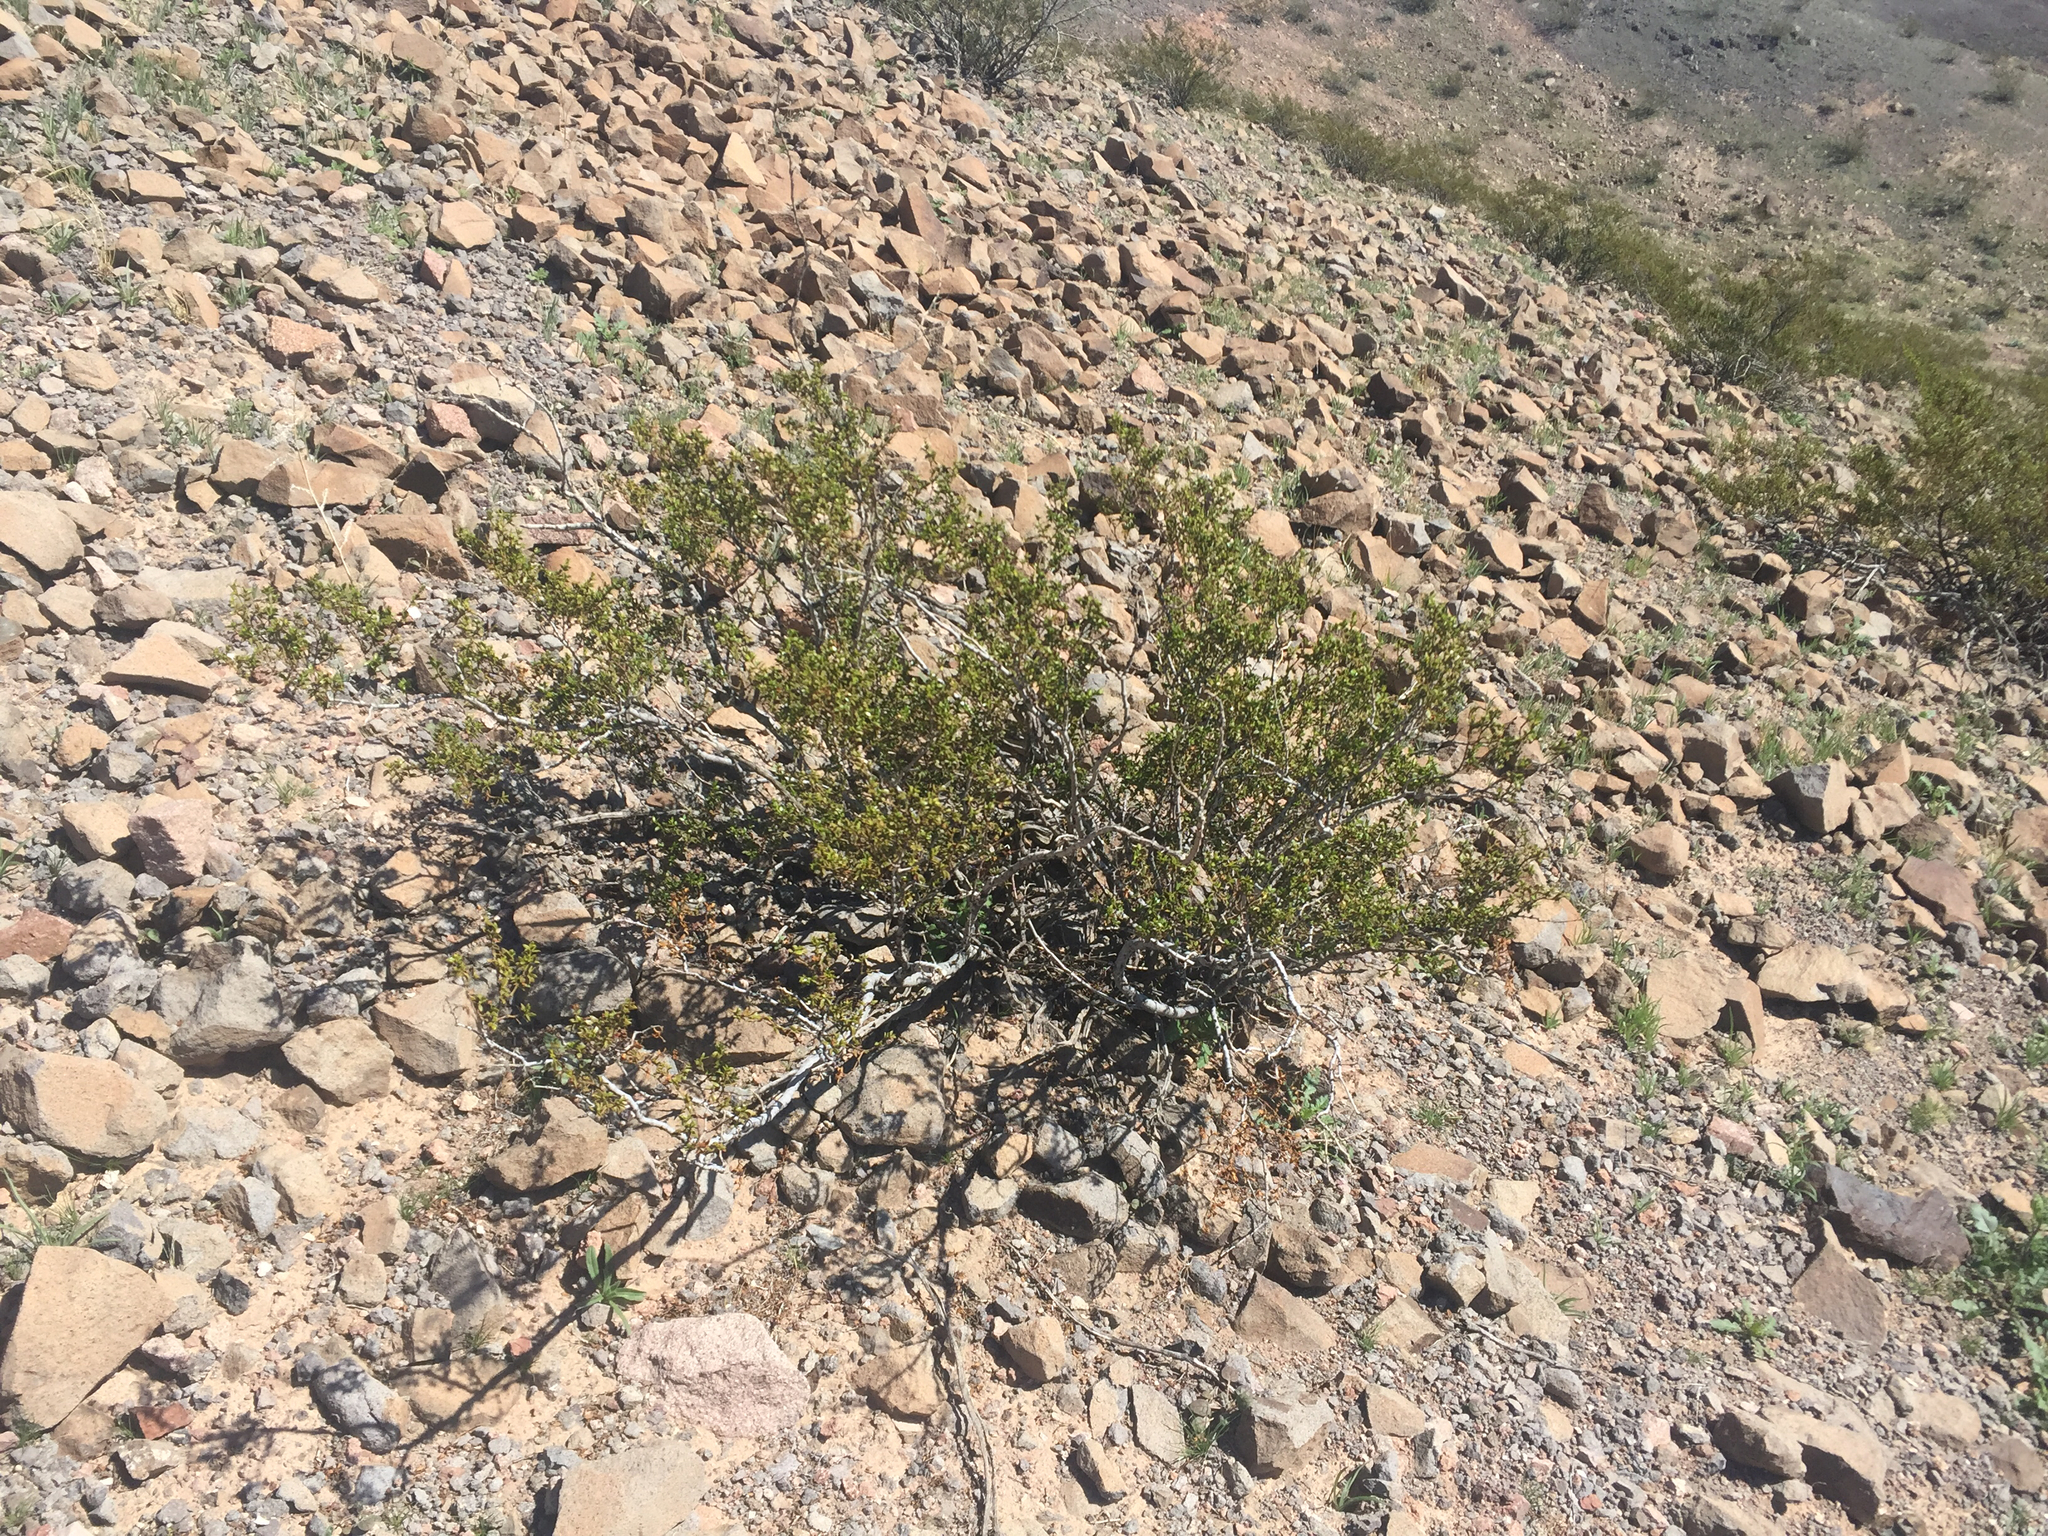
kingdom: Plantae
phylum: Tracheophyta
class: Magnoliopsida
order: Zygophyllales
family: Zygophyllaceae
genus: Larrea
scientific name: Larrea tridentata
